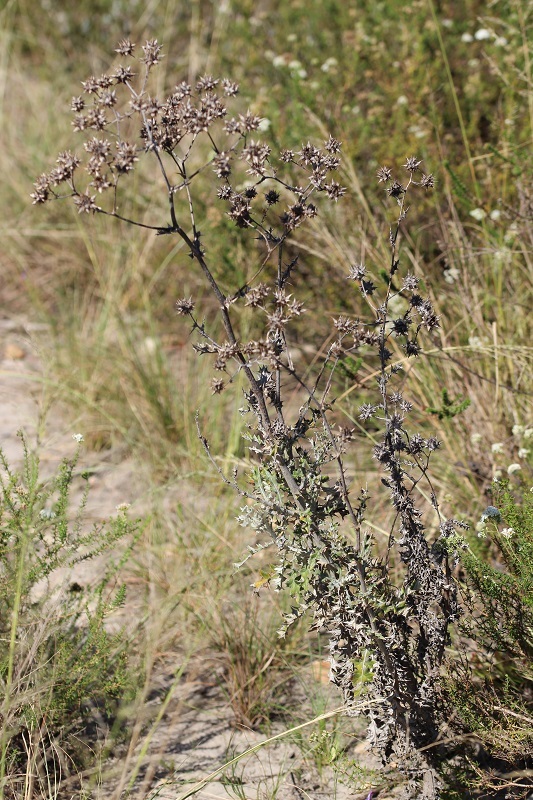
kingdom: Plantae
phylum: Tracheophyta
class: Magnoliopsida
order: Asterales
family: Asteraceae
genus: Berkheya
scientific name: Berkheya heterophylla
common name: Prickly gousblom
